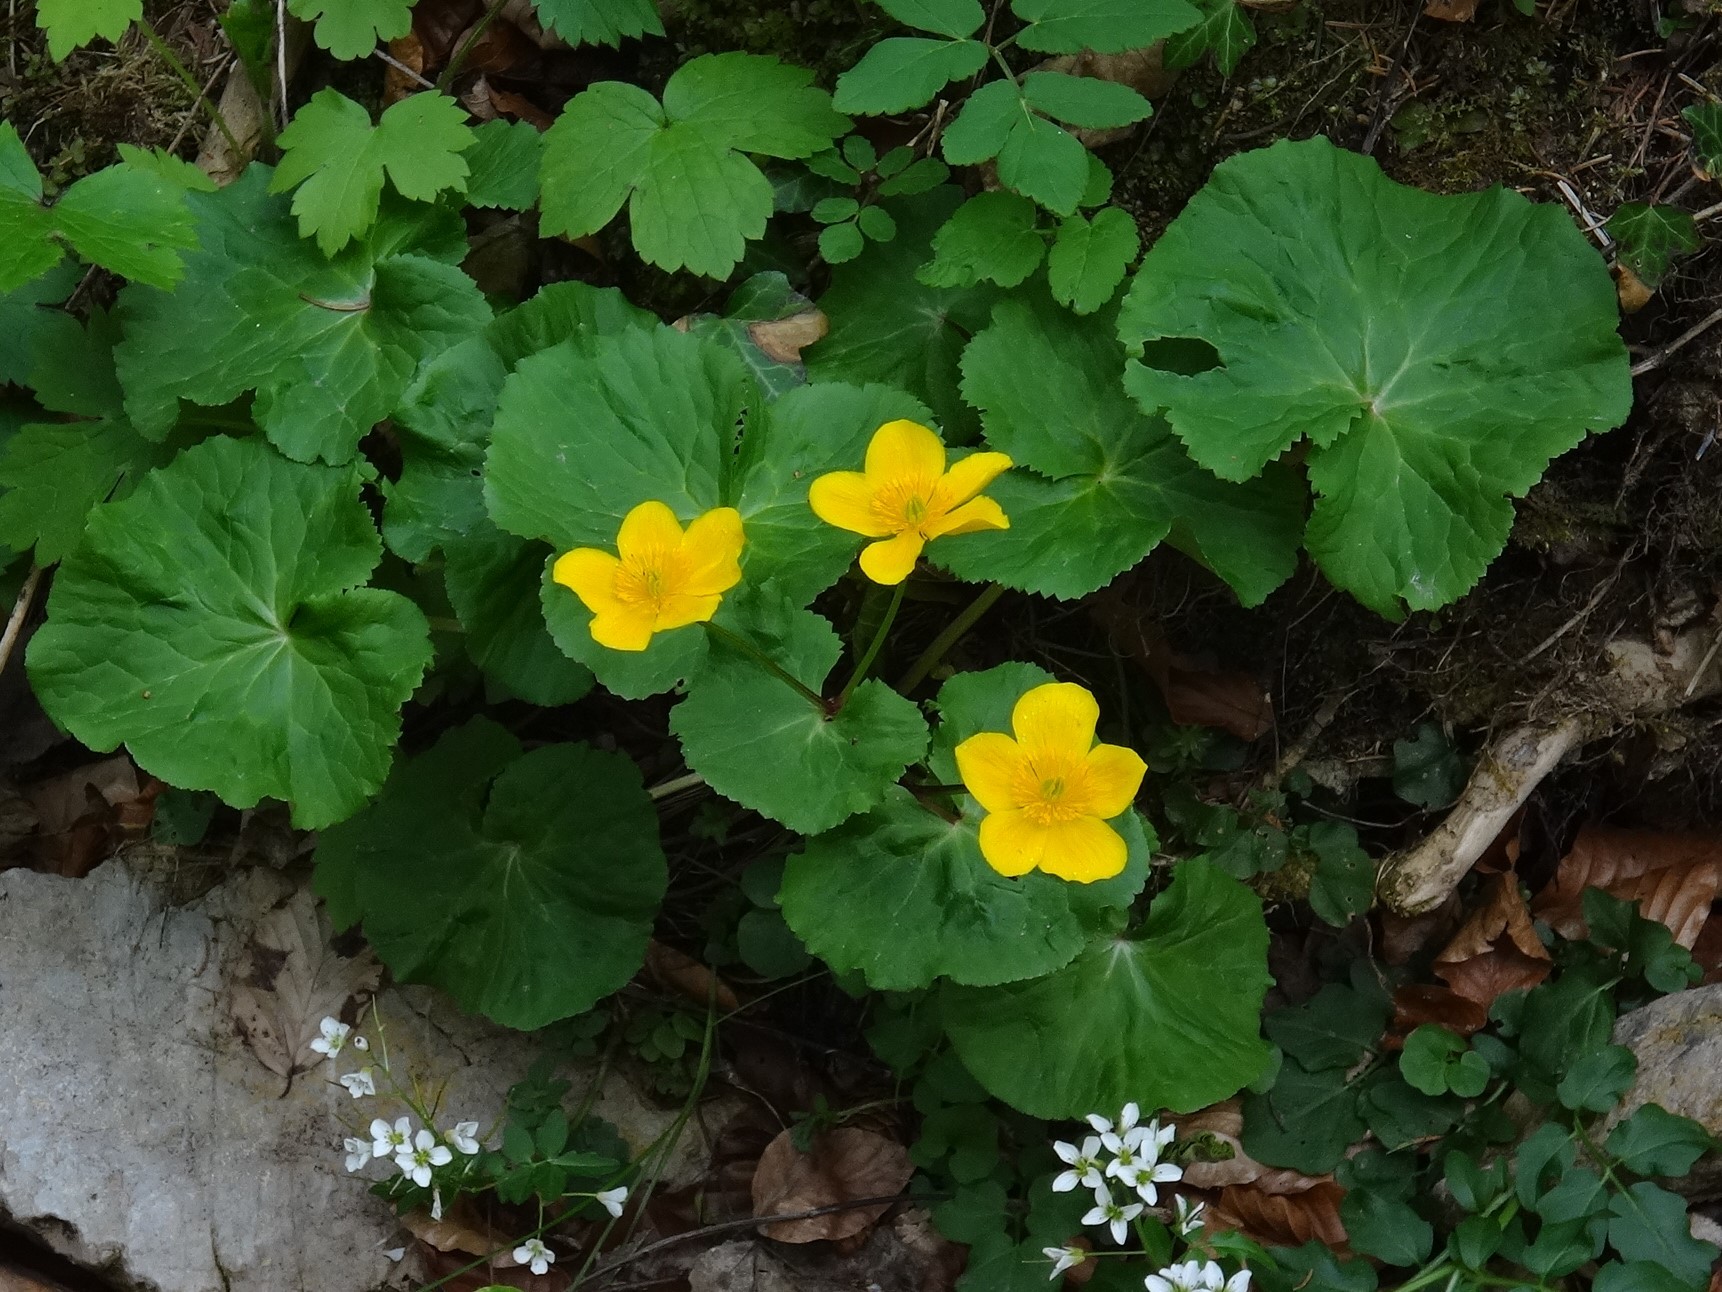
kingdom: Plantae
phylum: Tracheophyta
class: Magnoliopsida
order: Ranunculales
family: Ranunculaceae
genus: Caltha
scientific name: Caltha palustris
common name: Marsh marigold
